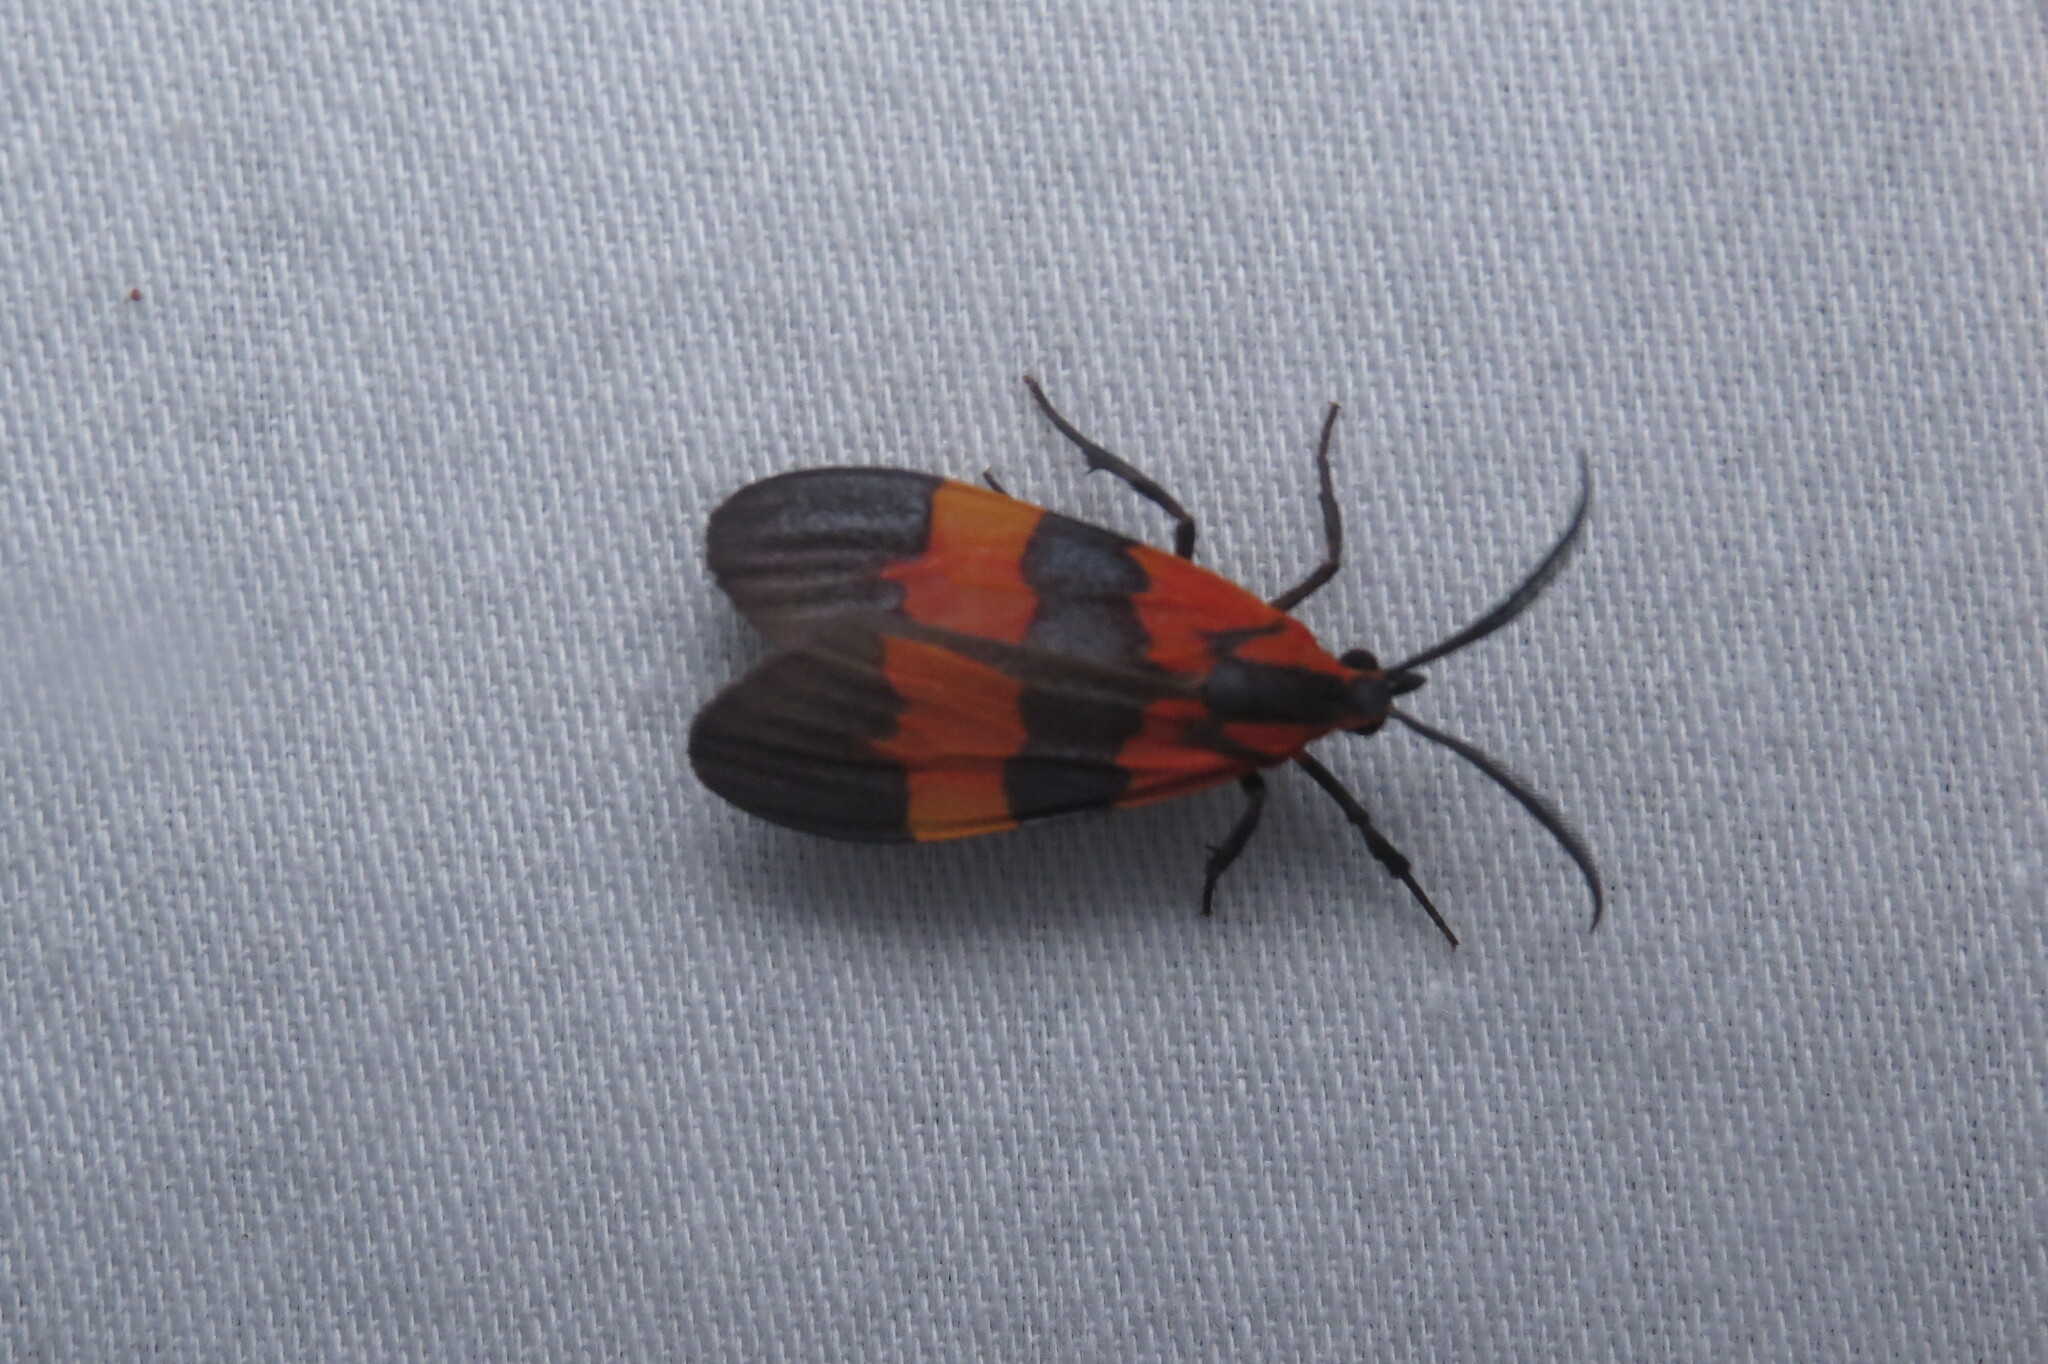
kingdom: Animalia
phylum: Arthropoda
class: Insecta
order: Lepidoptera
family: Erebidae
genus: Correbidia
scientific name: Correbidia terminalis
